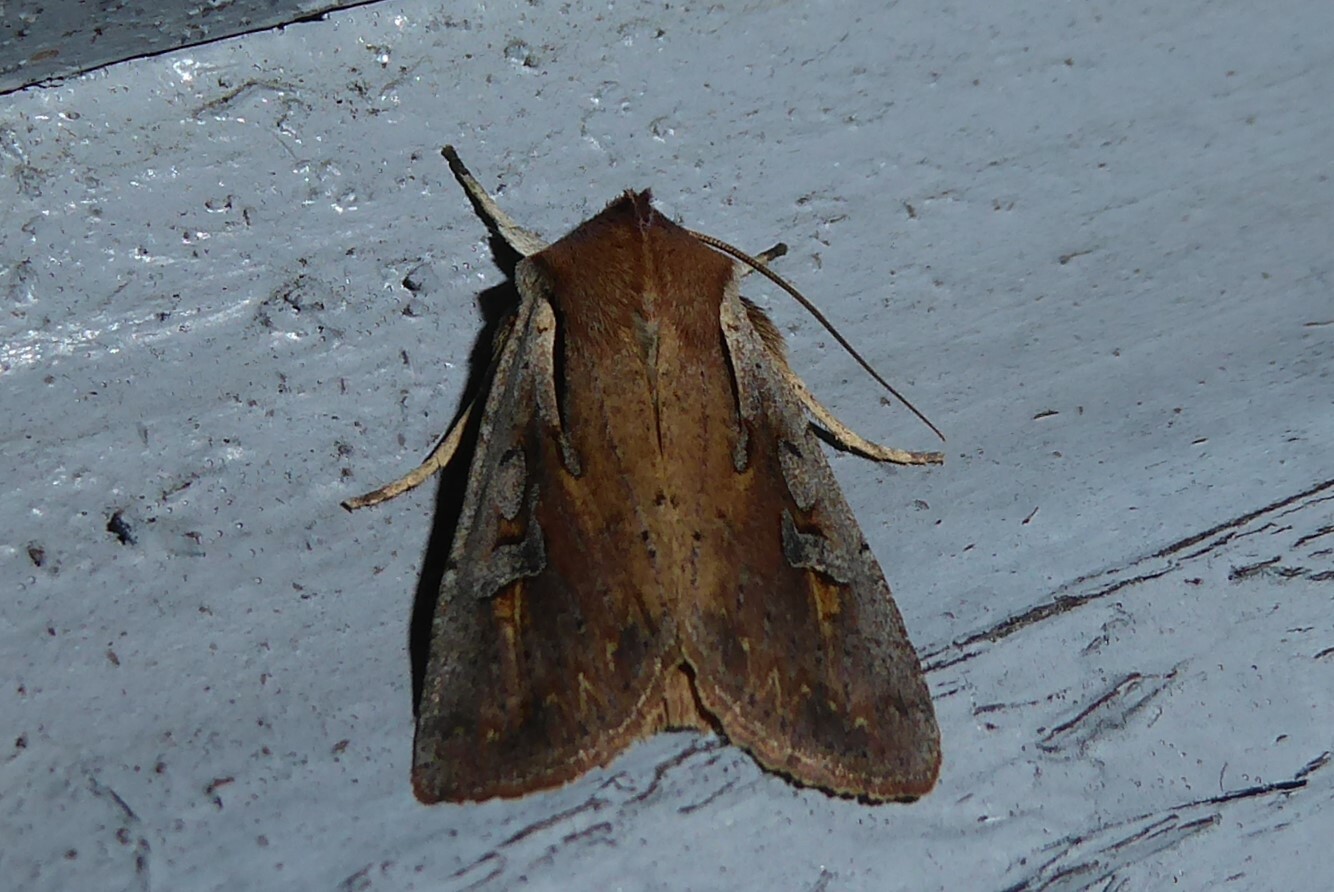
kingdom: Animalia
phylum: Arthropoda
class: Insecta
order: Lepidoptera
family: Noctuidae
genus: Ichneutica
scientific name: Ichneutica atristriga
